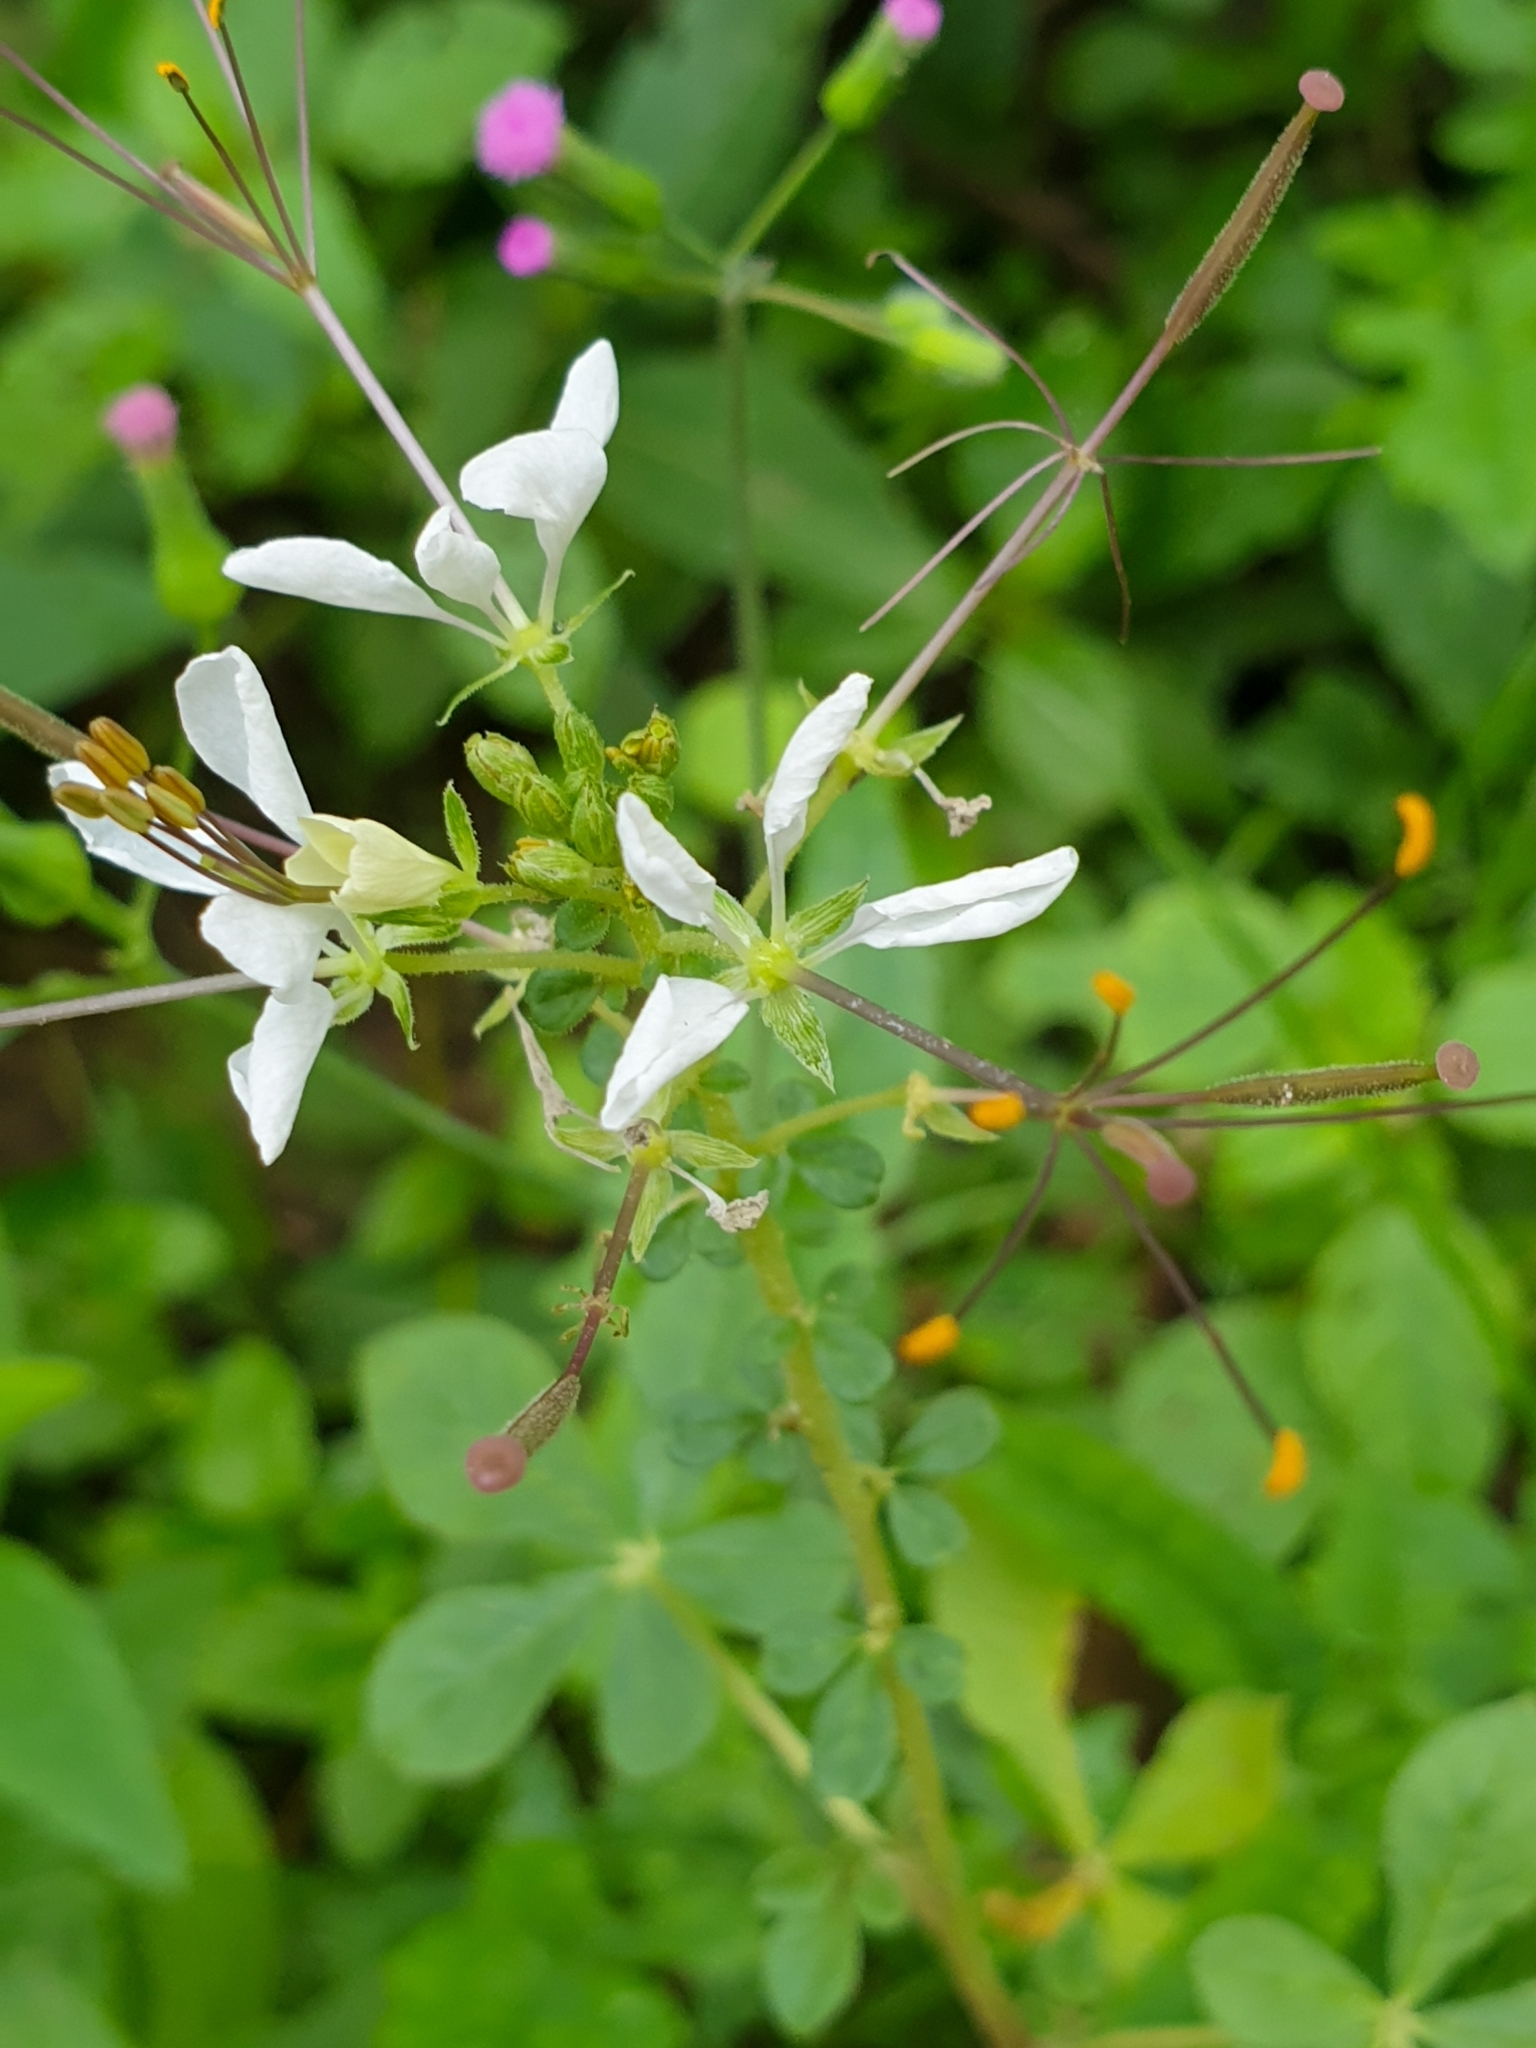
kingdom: Plantae
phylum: Tracheophyta
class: Magnoliopsida
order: Brassicales
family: Cleomaceae
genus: Gynandropsis
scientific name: Gynandropsis gynandra
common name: Spiderwisp
